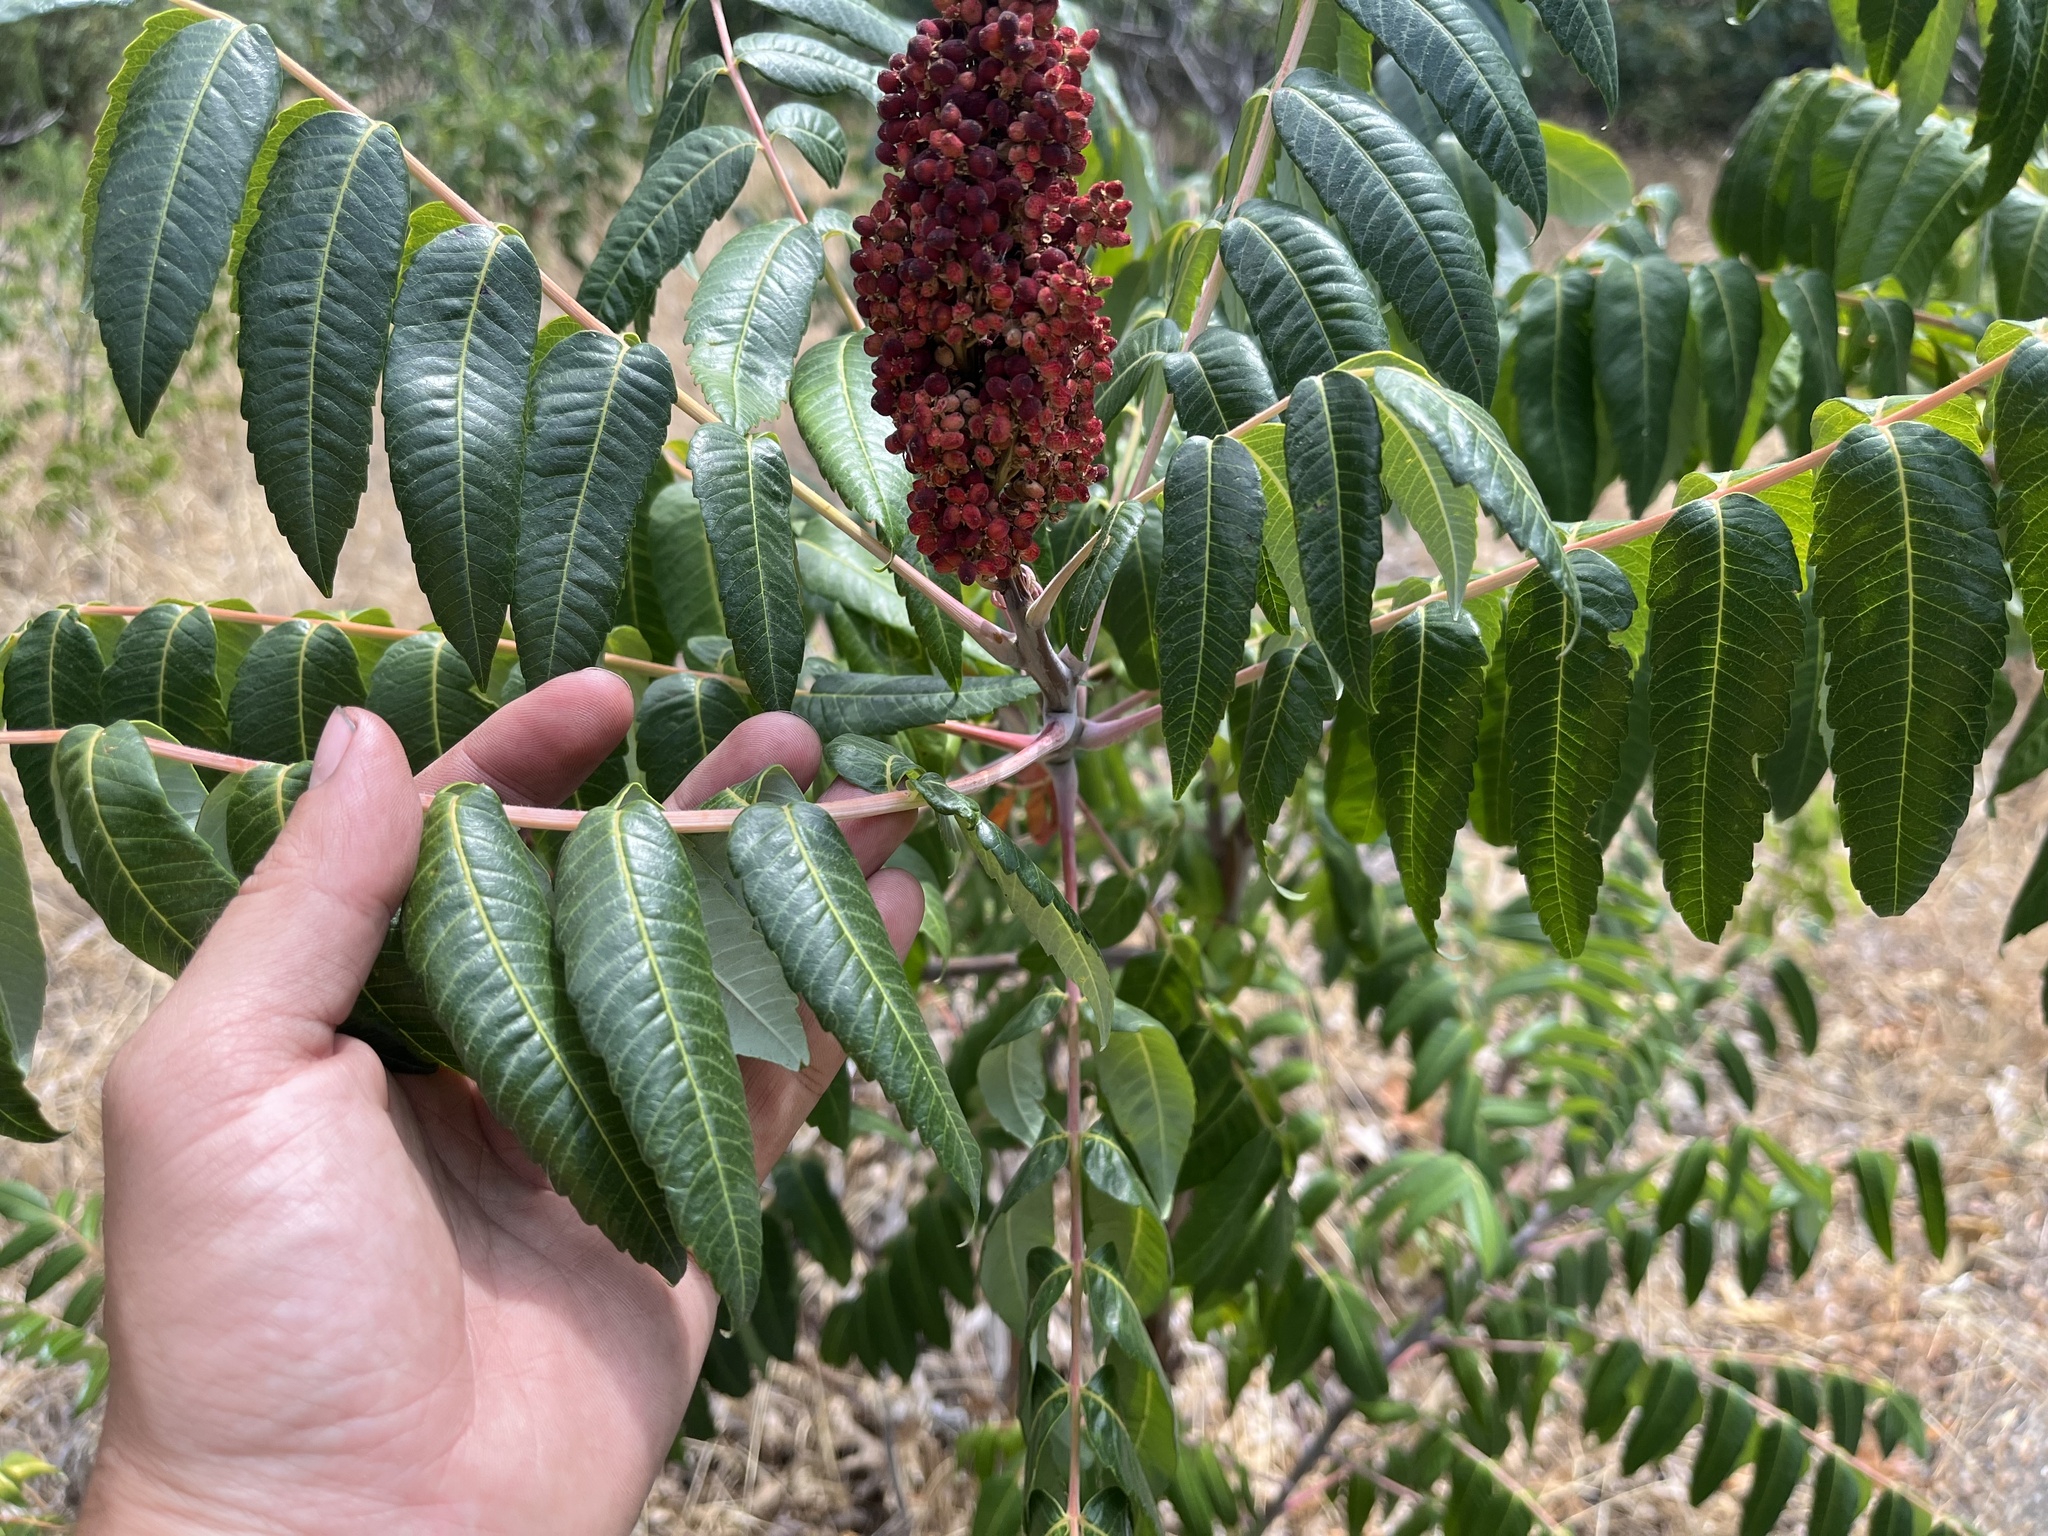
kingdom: Plantae
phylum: Tracheophyta
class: Magnoliopsida
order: Sapindales
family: Anacardiaceae
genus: Rhus
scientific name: Rhus glabra
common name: Scarlet sumac
